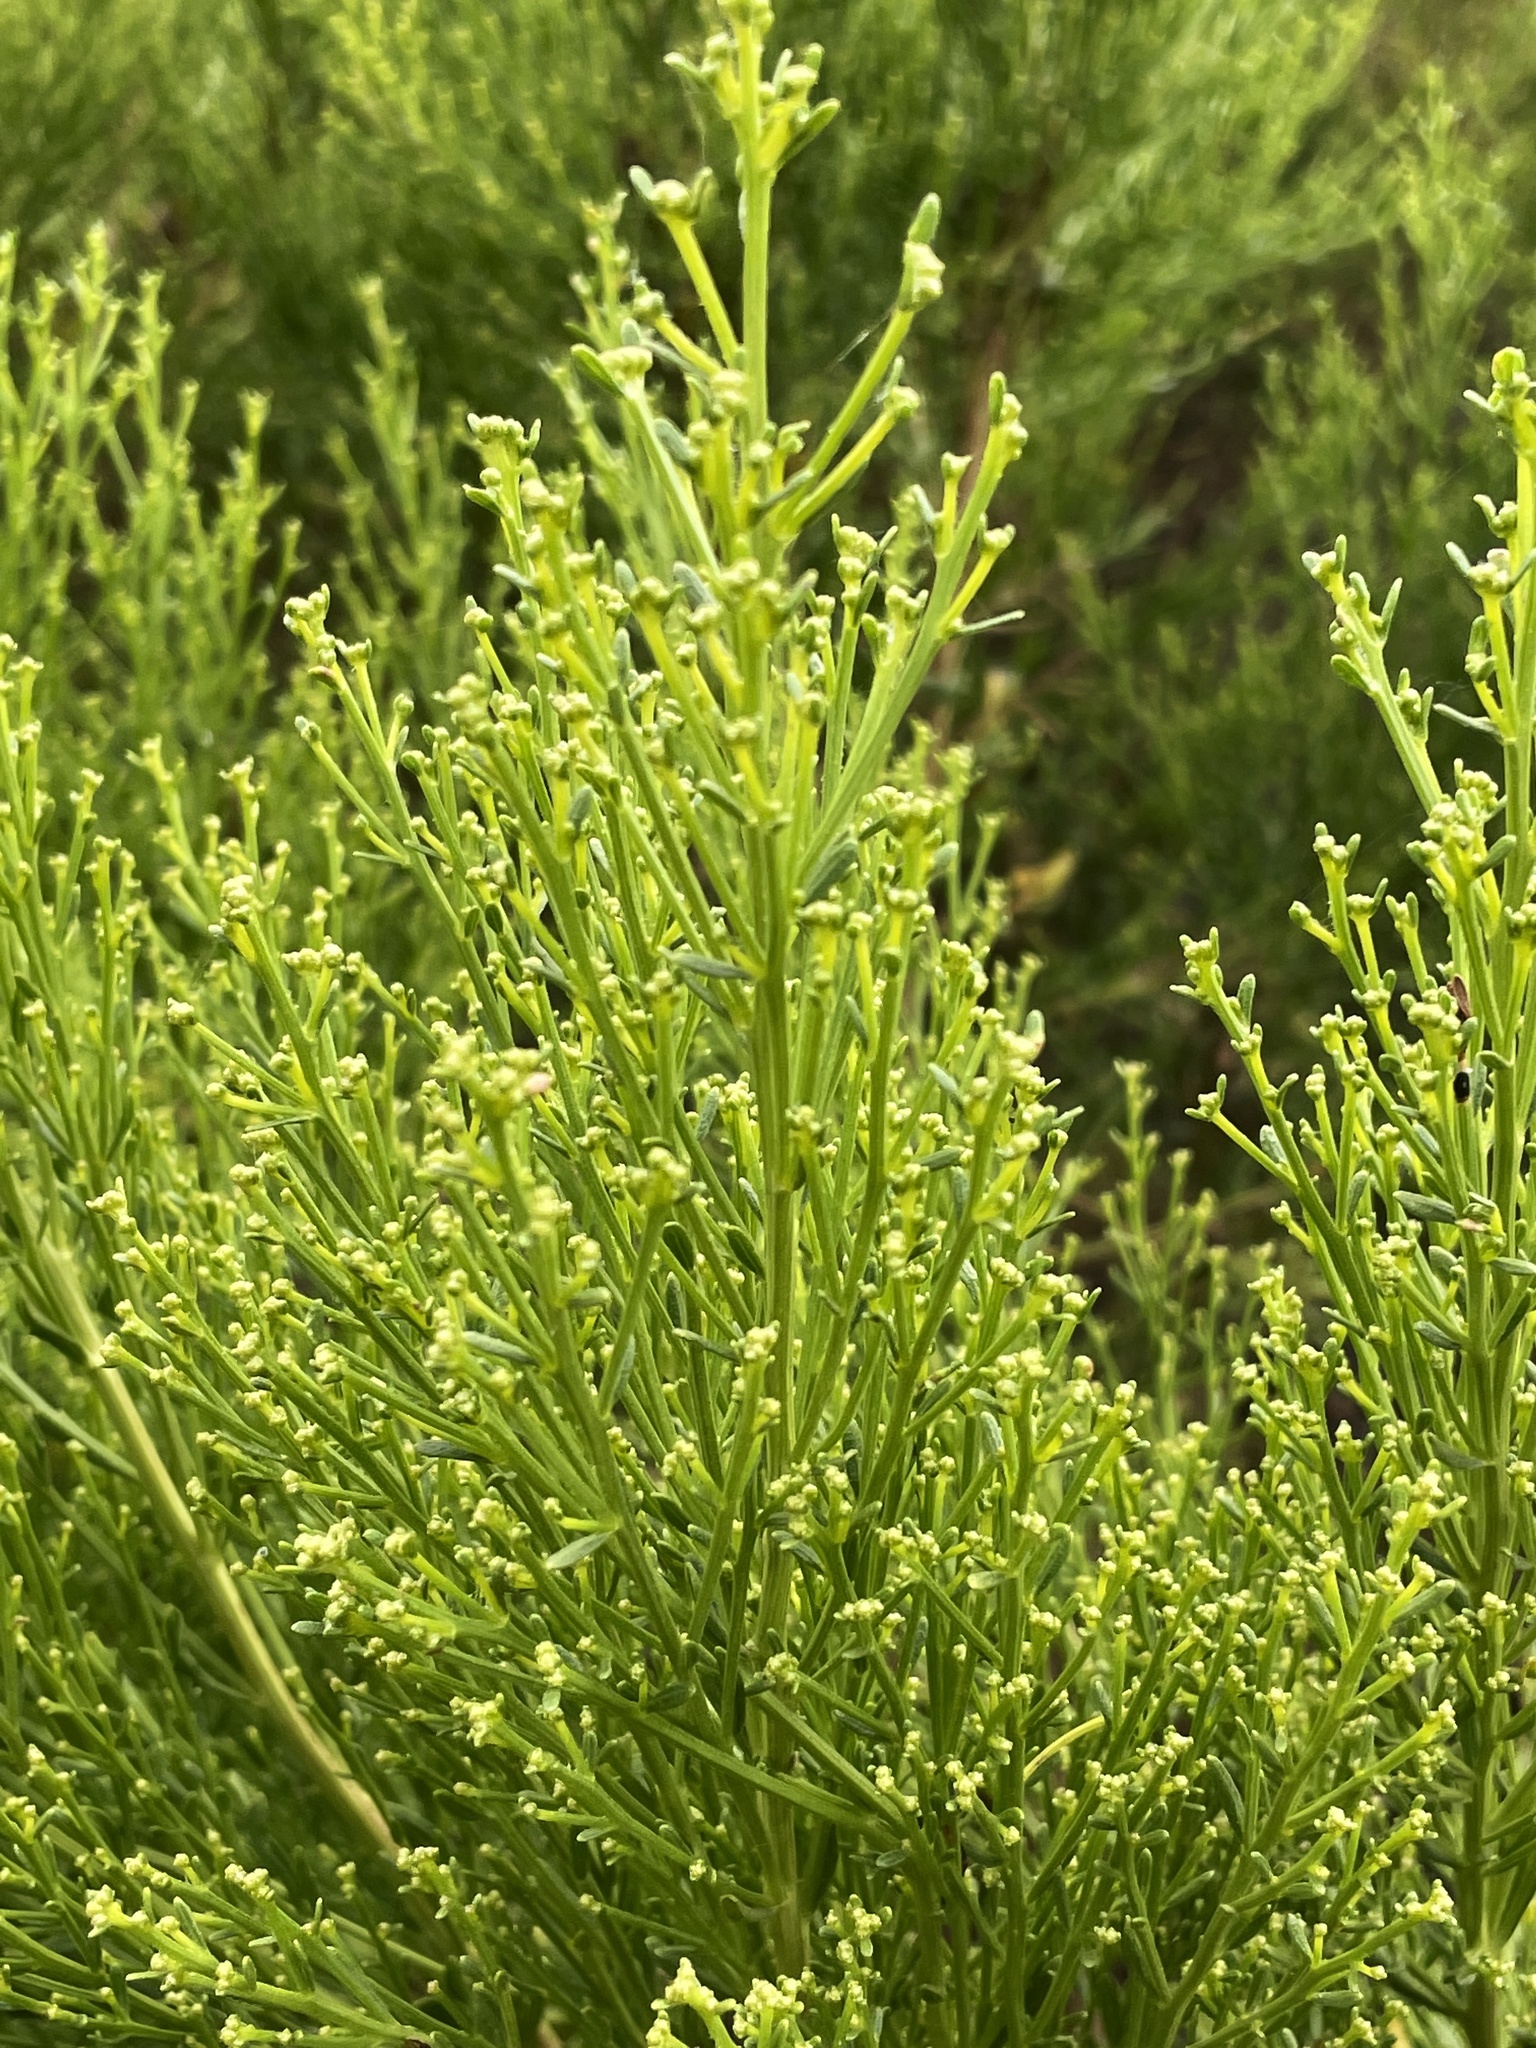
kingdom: Plantae
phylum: Tracheophyta
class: Magnoliopsida
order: Asterales
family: Asteraceae
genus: Baccharis
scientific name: Baccharis sarothroides
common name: Desert-broom
